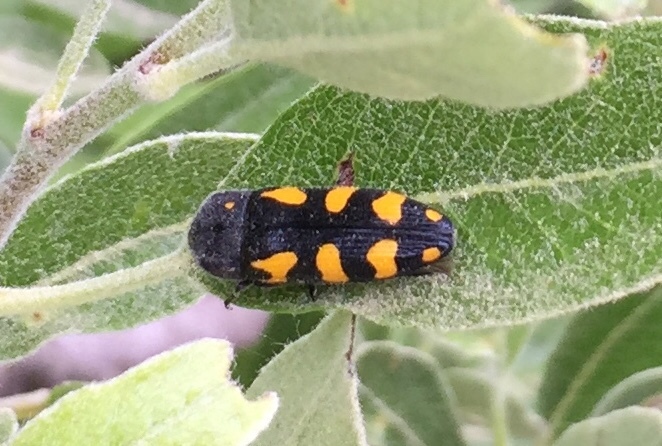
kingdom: Animalia
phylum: Arthropoda
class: Insecta
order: Coleoptera
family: Buprestidae
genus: Ptosima
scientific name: Ptosima undecimmaculata
